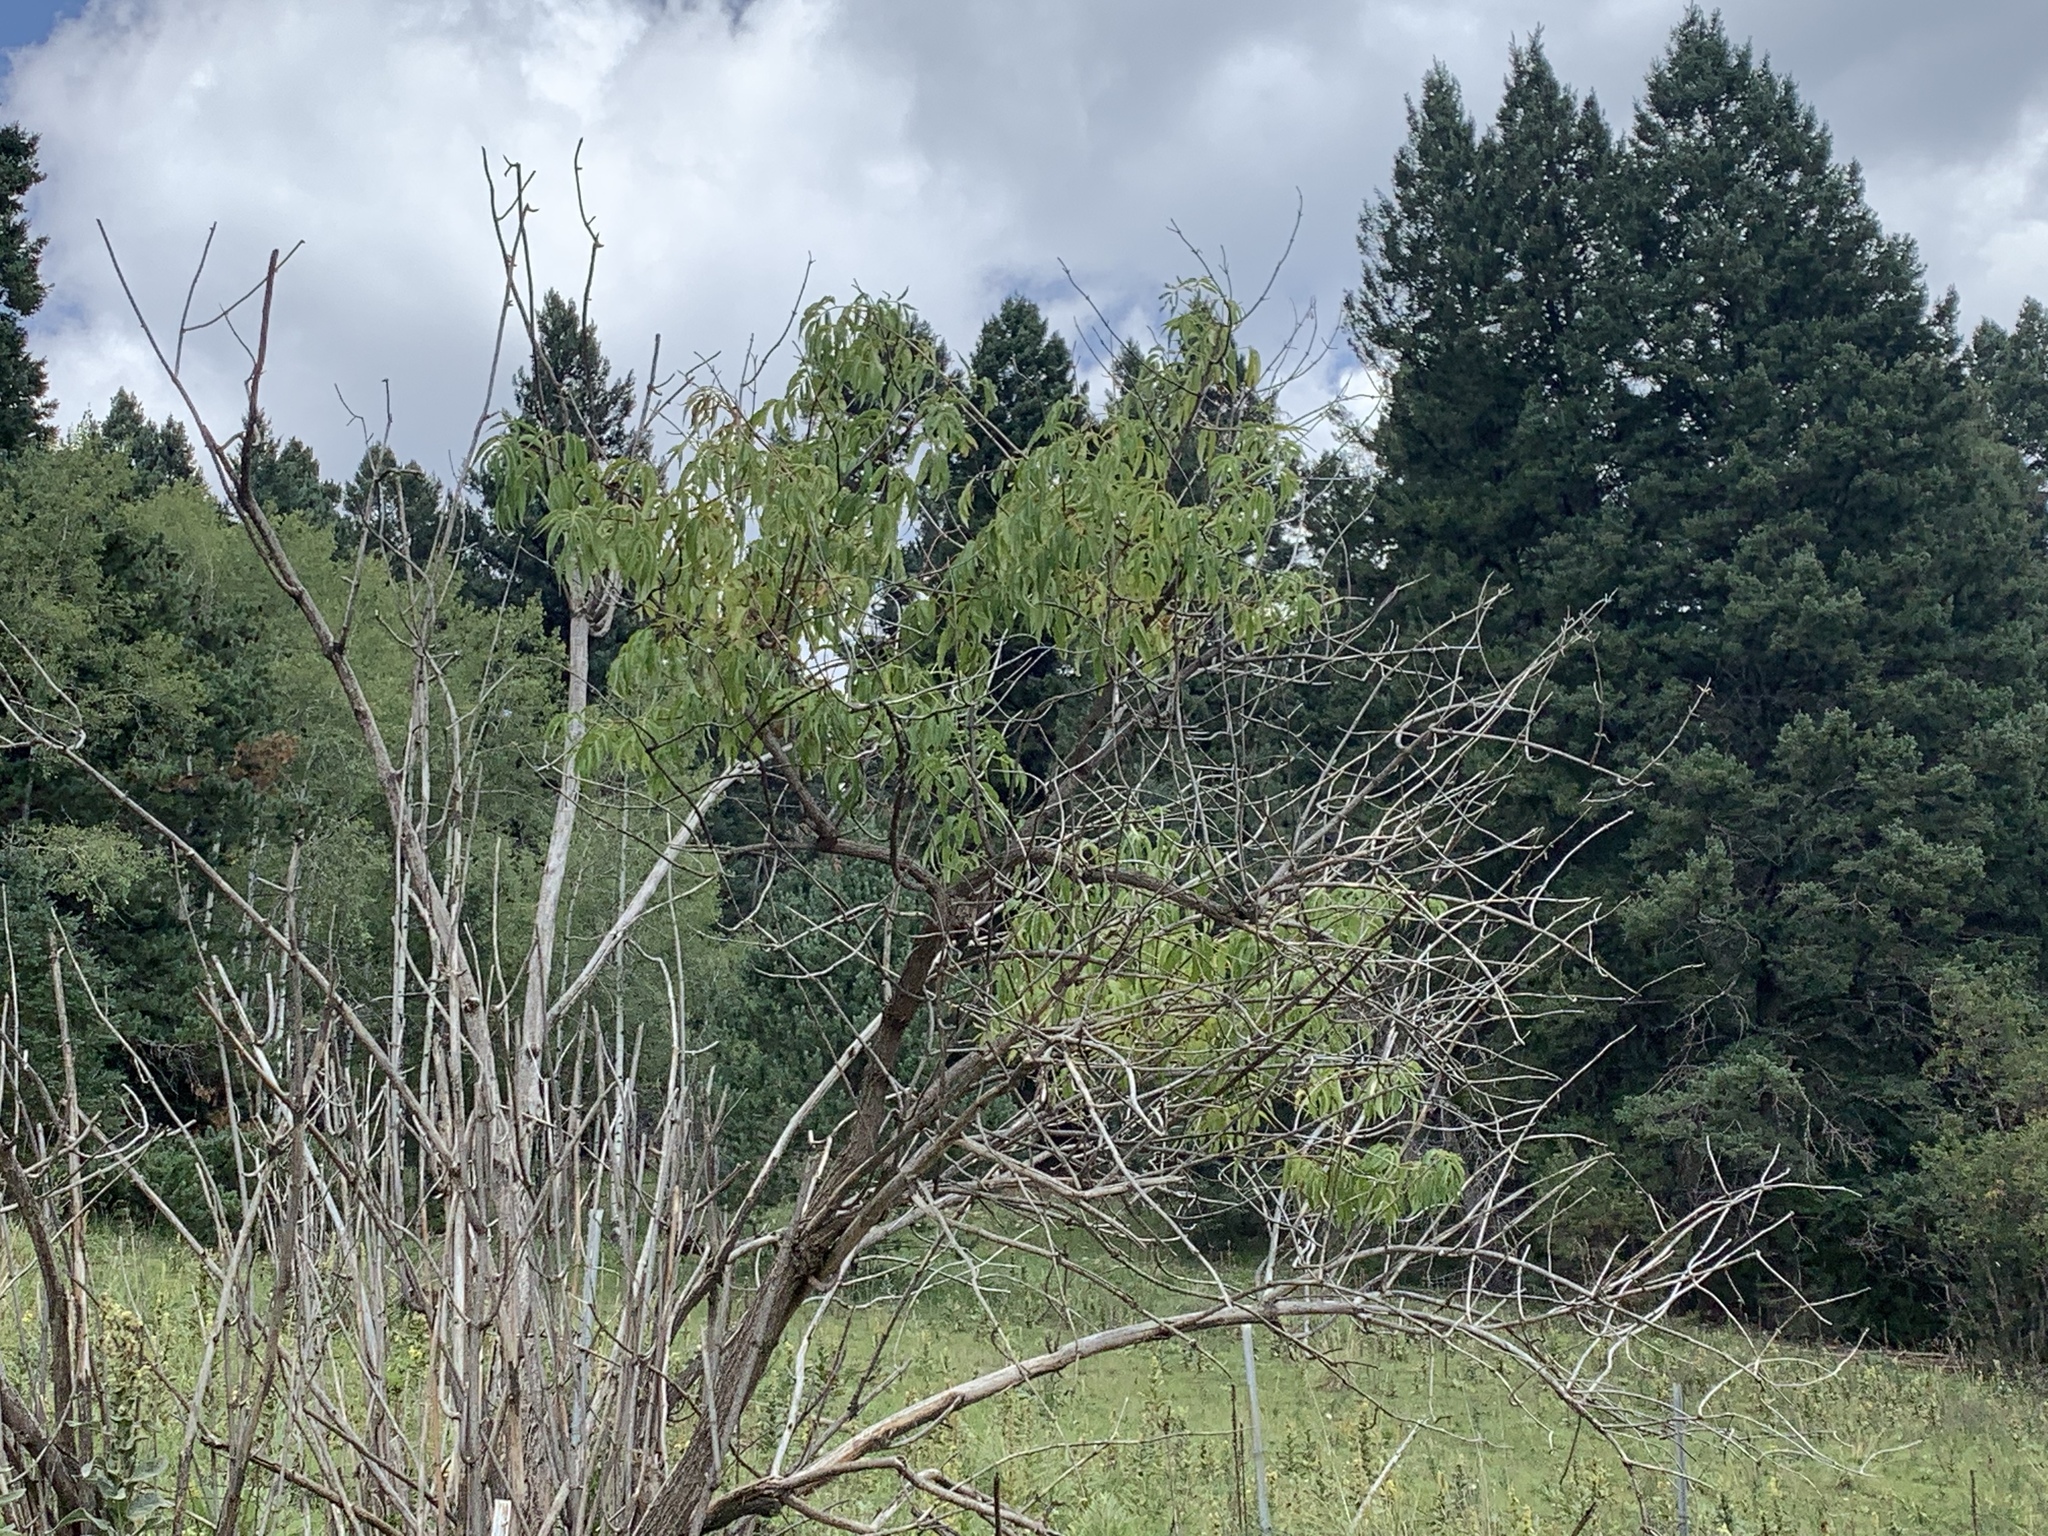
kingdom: Plantae
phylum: Tracheophyta
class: Magnoliopsida
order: Dipsacales
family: Viburnaceae
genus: Sambucus
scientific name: Sambucus cerulea
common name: Blue elder
